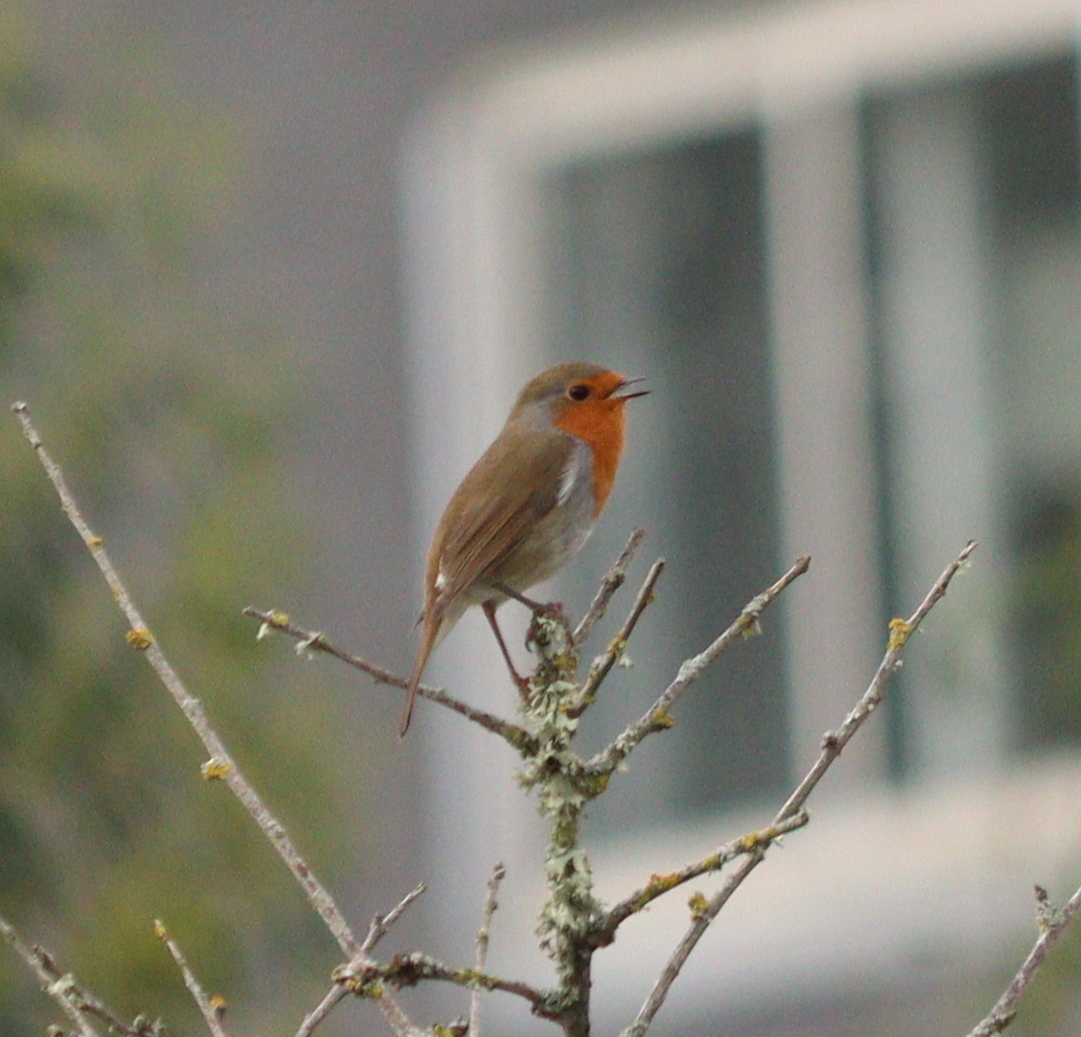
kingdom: Animalia
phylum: Chordata
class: Aves
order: Passeriformes
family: Muscicapidae
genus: Erithacus
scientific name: Erithacus rubecula
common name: European robin
